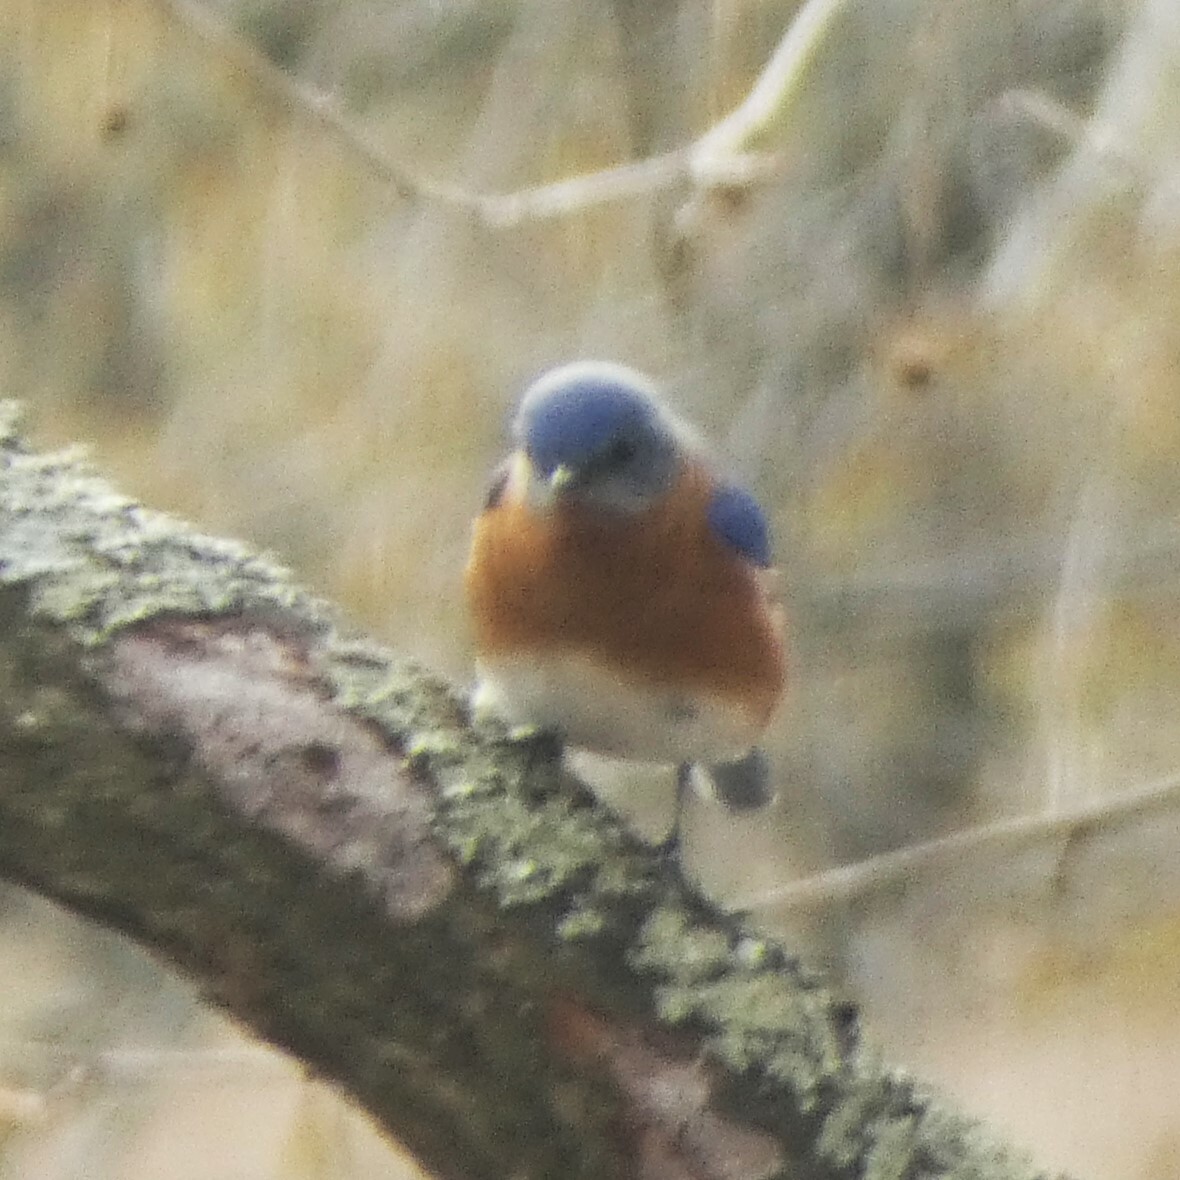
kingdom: Animalia
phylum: Chordata
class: Aves
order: Passeriformes
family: Turdidae
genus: Sialia
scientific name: Sialia sialis
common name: Eastern bluebird
